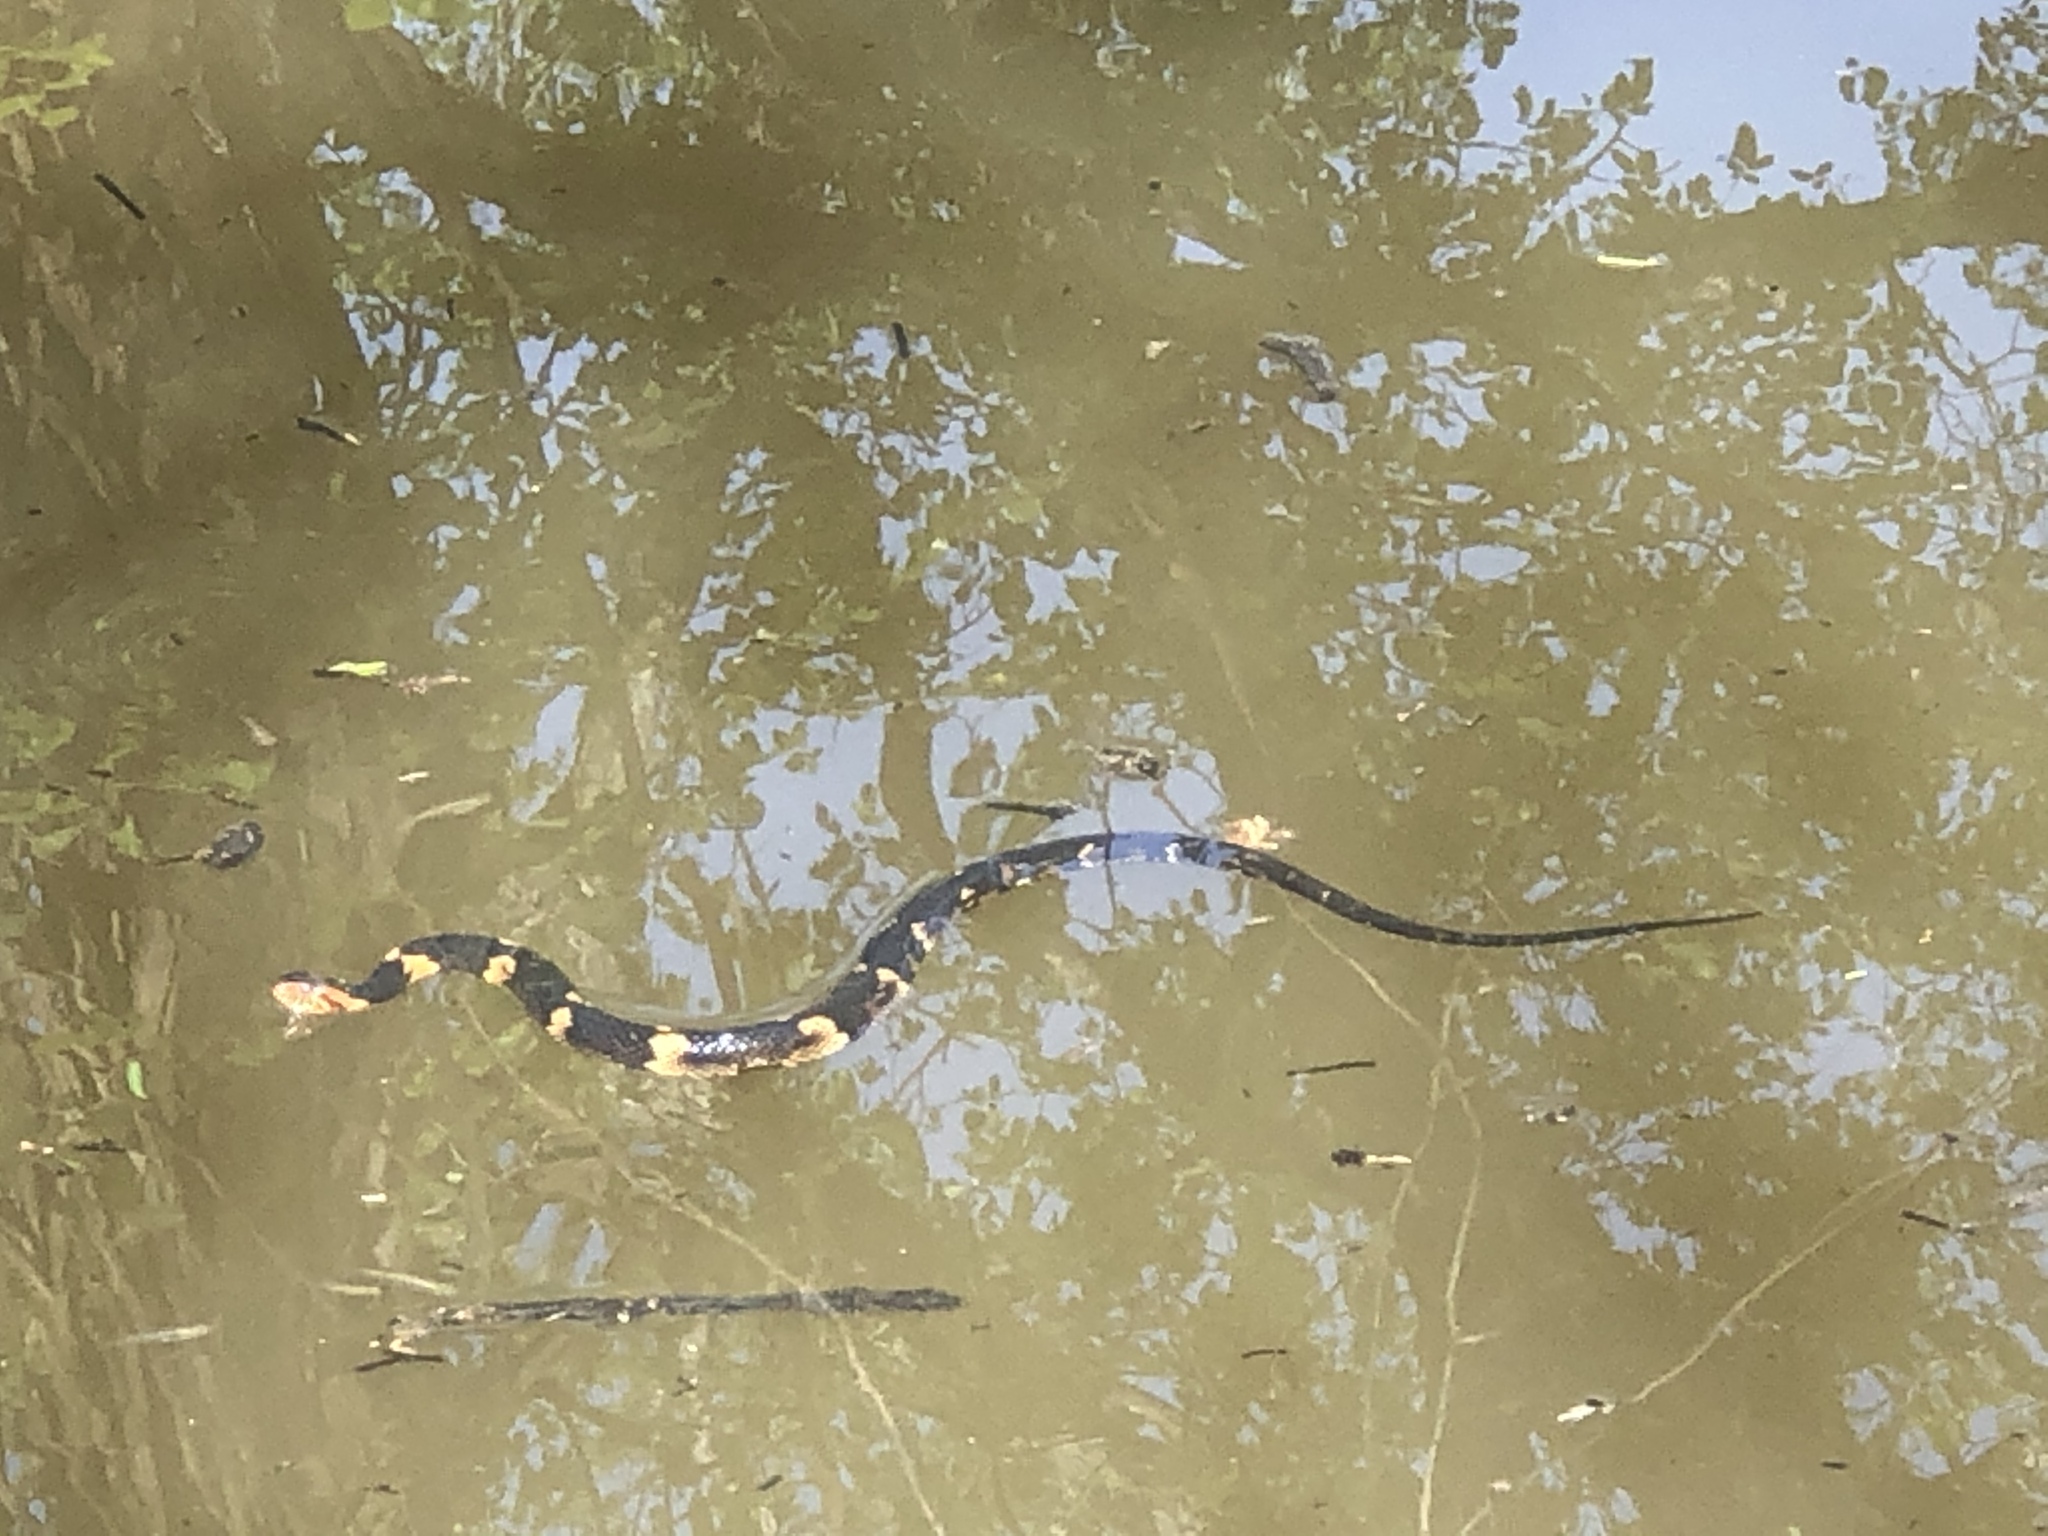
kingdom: Animalia
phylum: Chordata
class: Squamata
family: Colubridae
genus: Nerodia
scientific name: Nerodia fasciata
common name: Southern water snake
